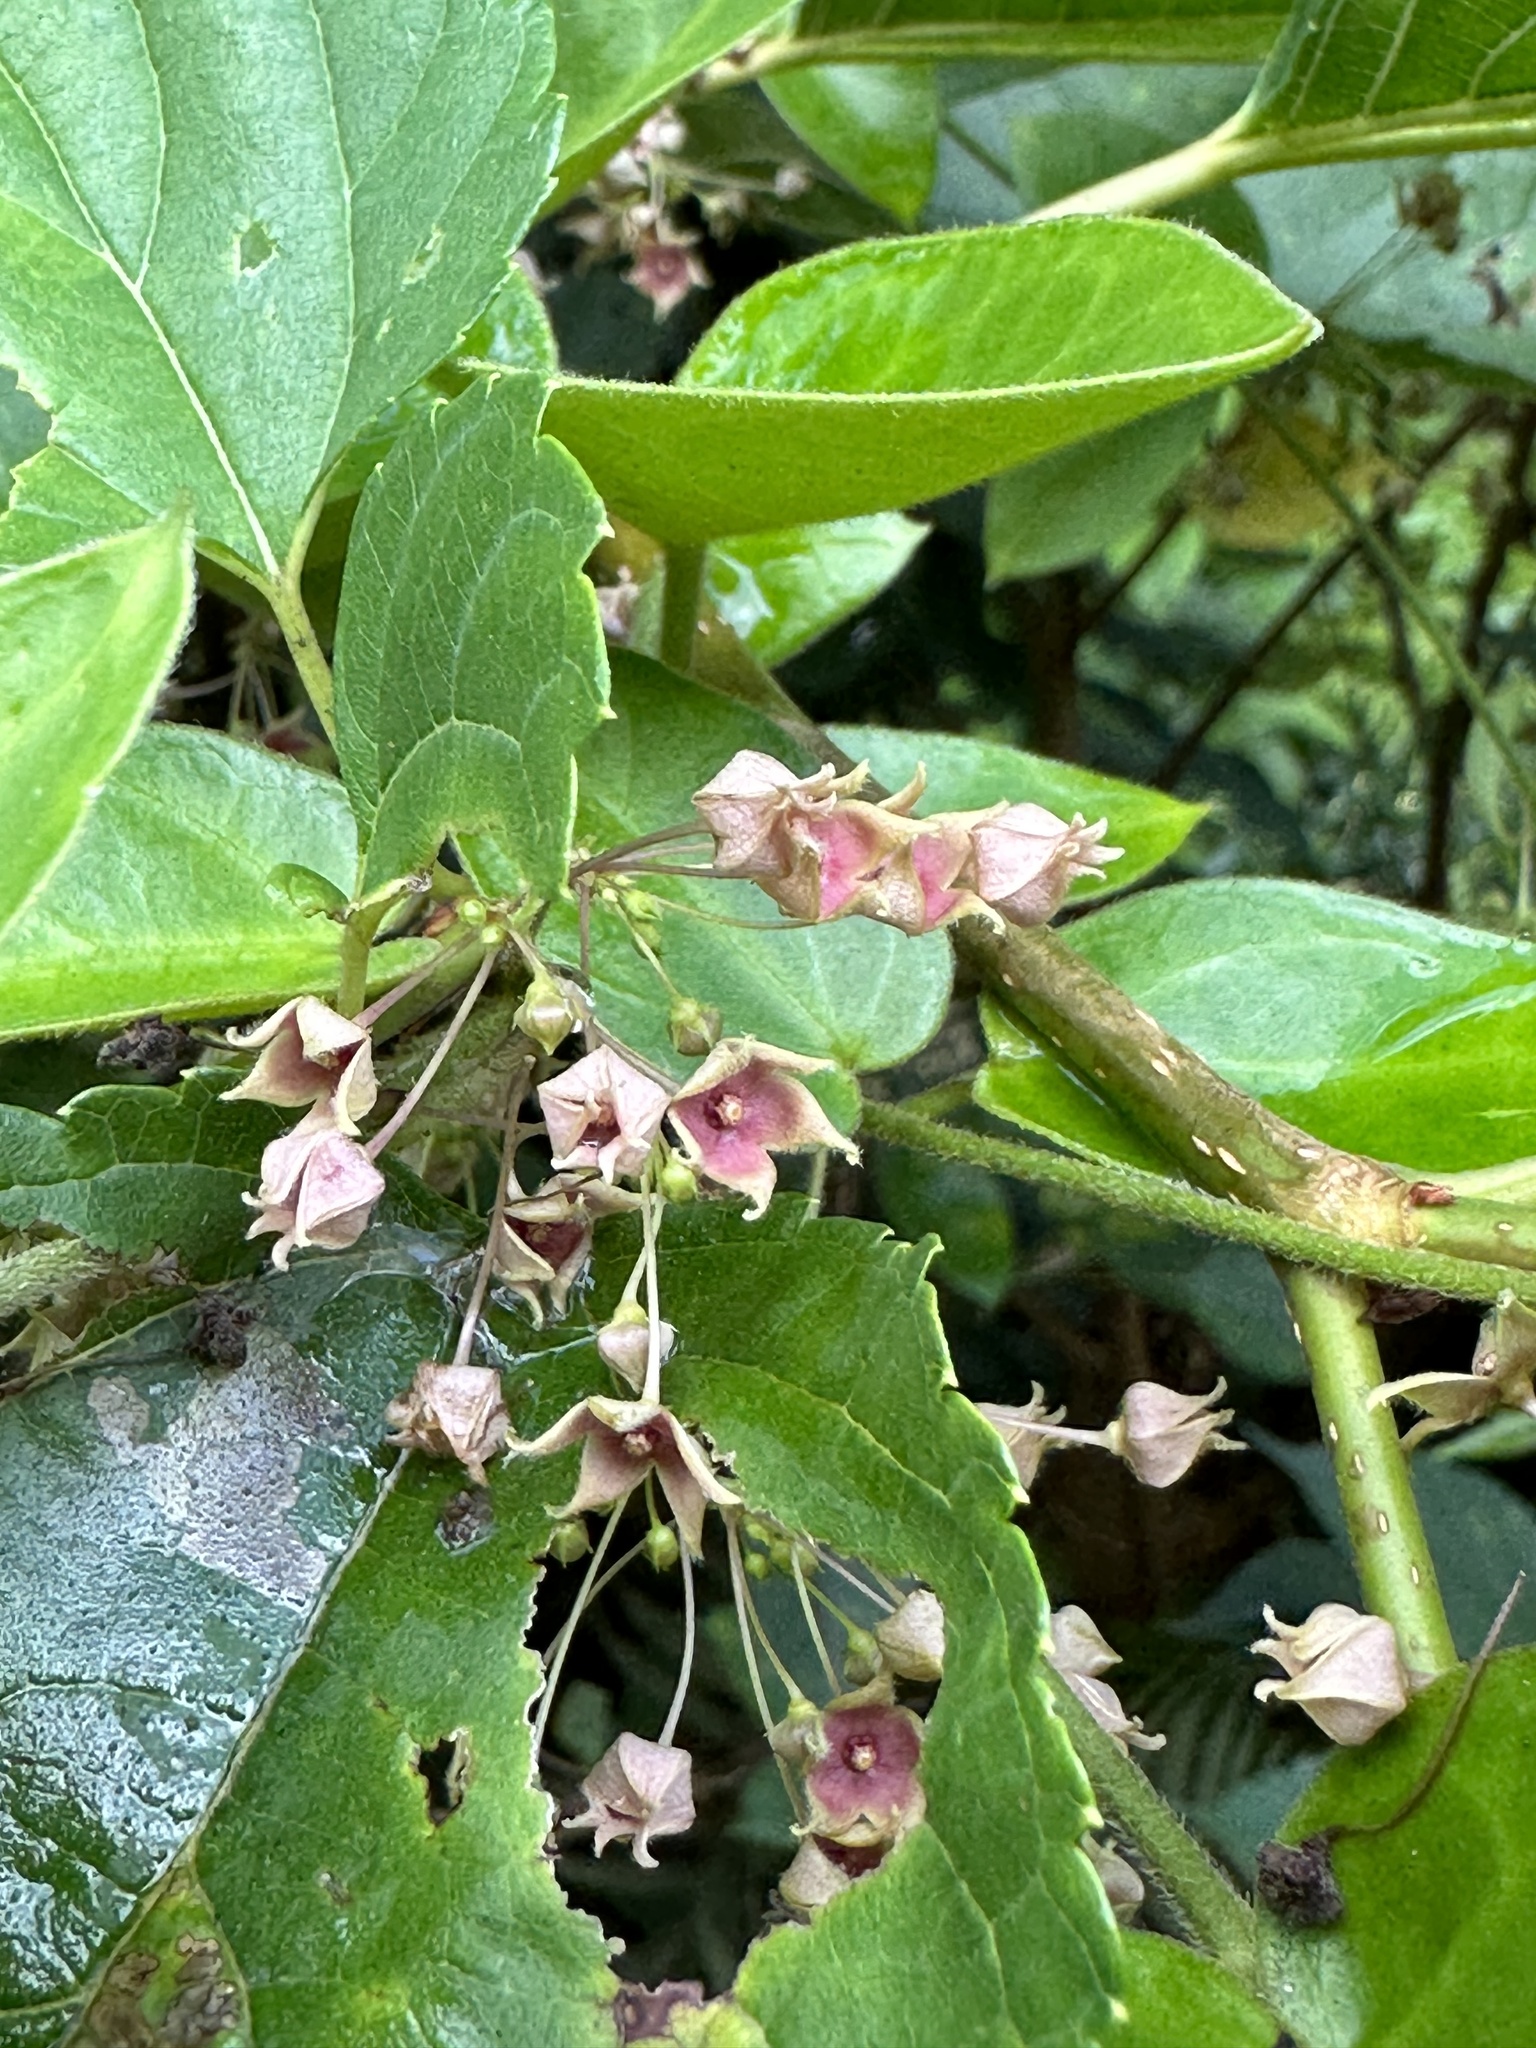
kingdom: Plantae
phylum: Tracheophyta
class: Magnoliopsida
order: Gentianales
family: Apocynaceae
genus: Vincetoxicum
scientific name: Vincetoxicum hirsutum
